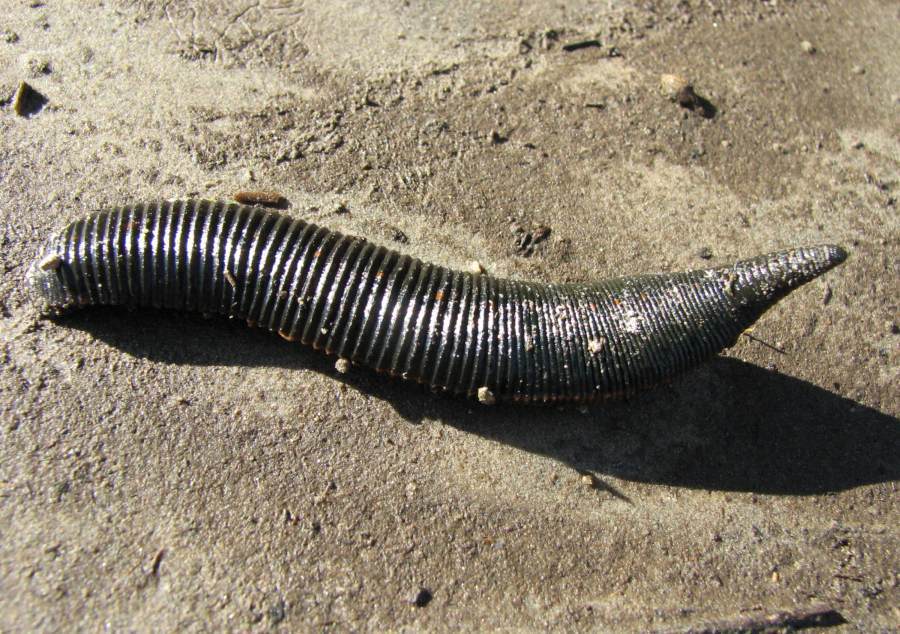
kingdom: Animalia
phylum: Annelida
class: Clitellata
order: Arhynchobdellida
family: Hirudinidae
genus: Macrobdella
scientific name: Macrobdella decora
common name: North american leech
